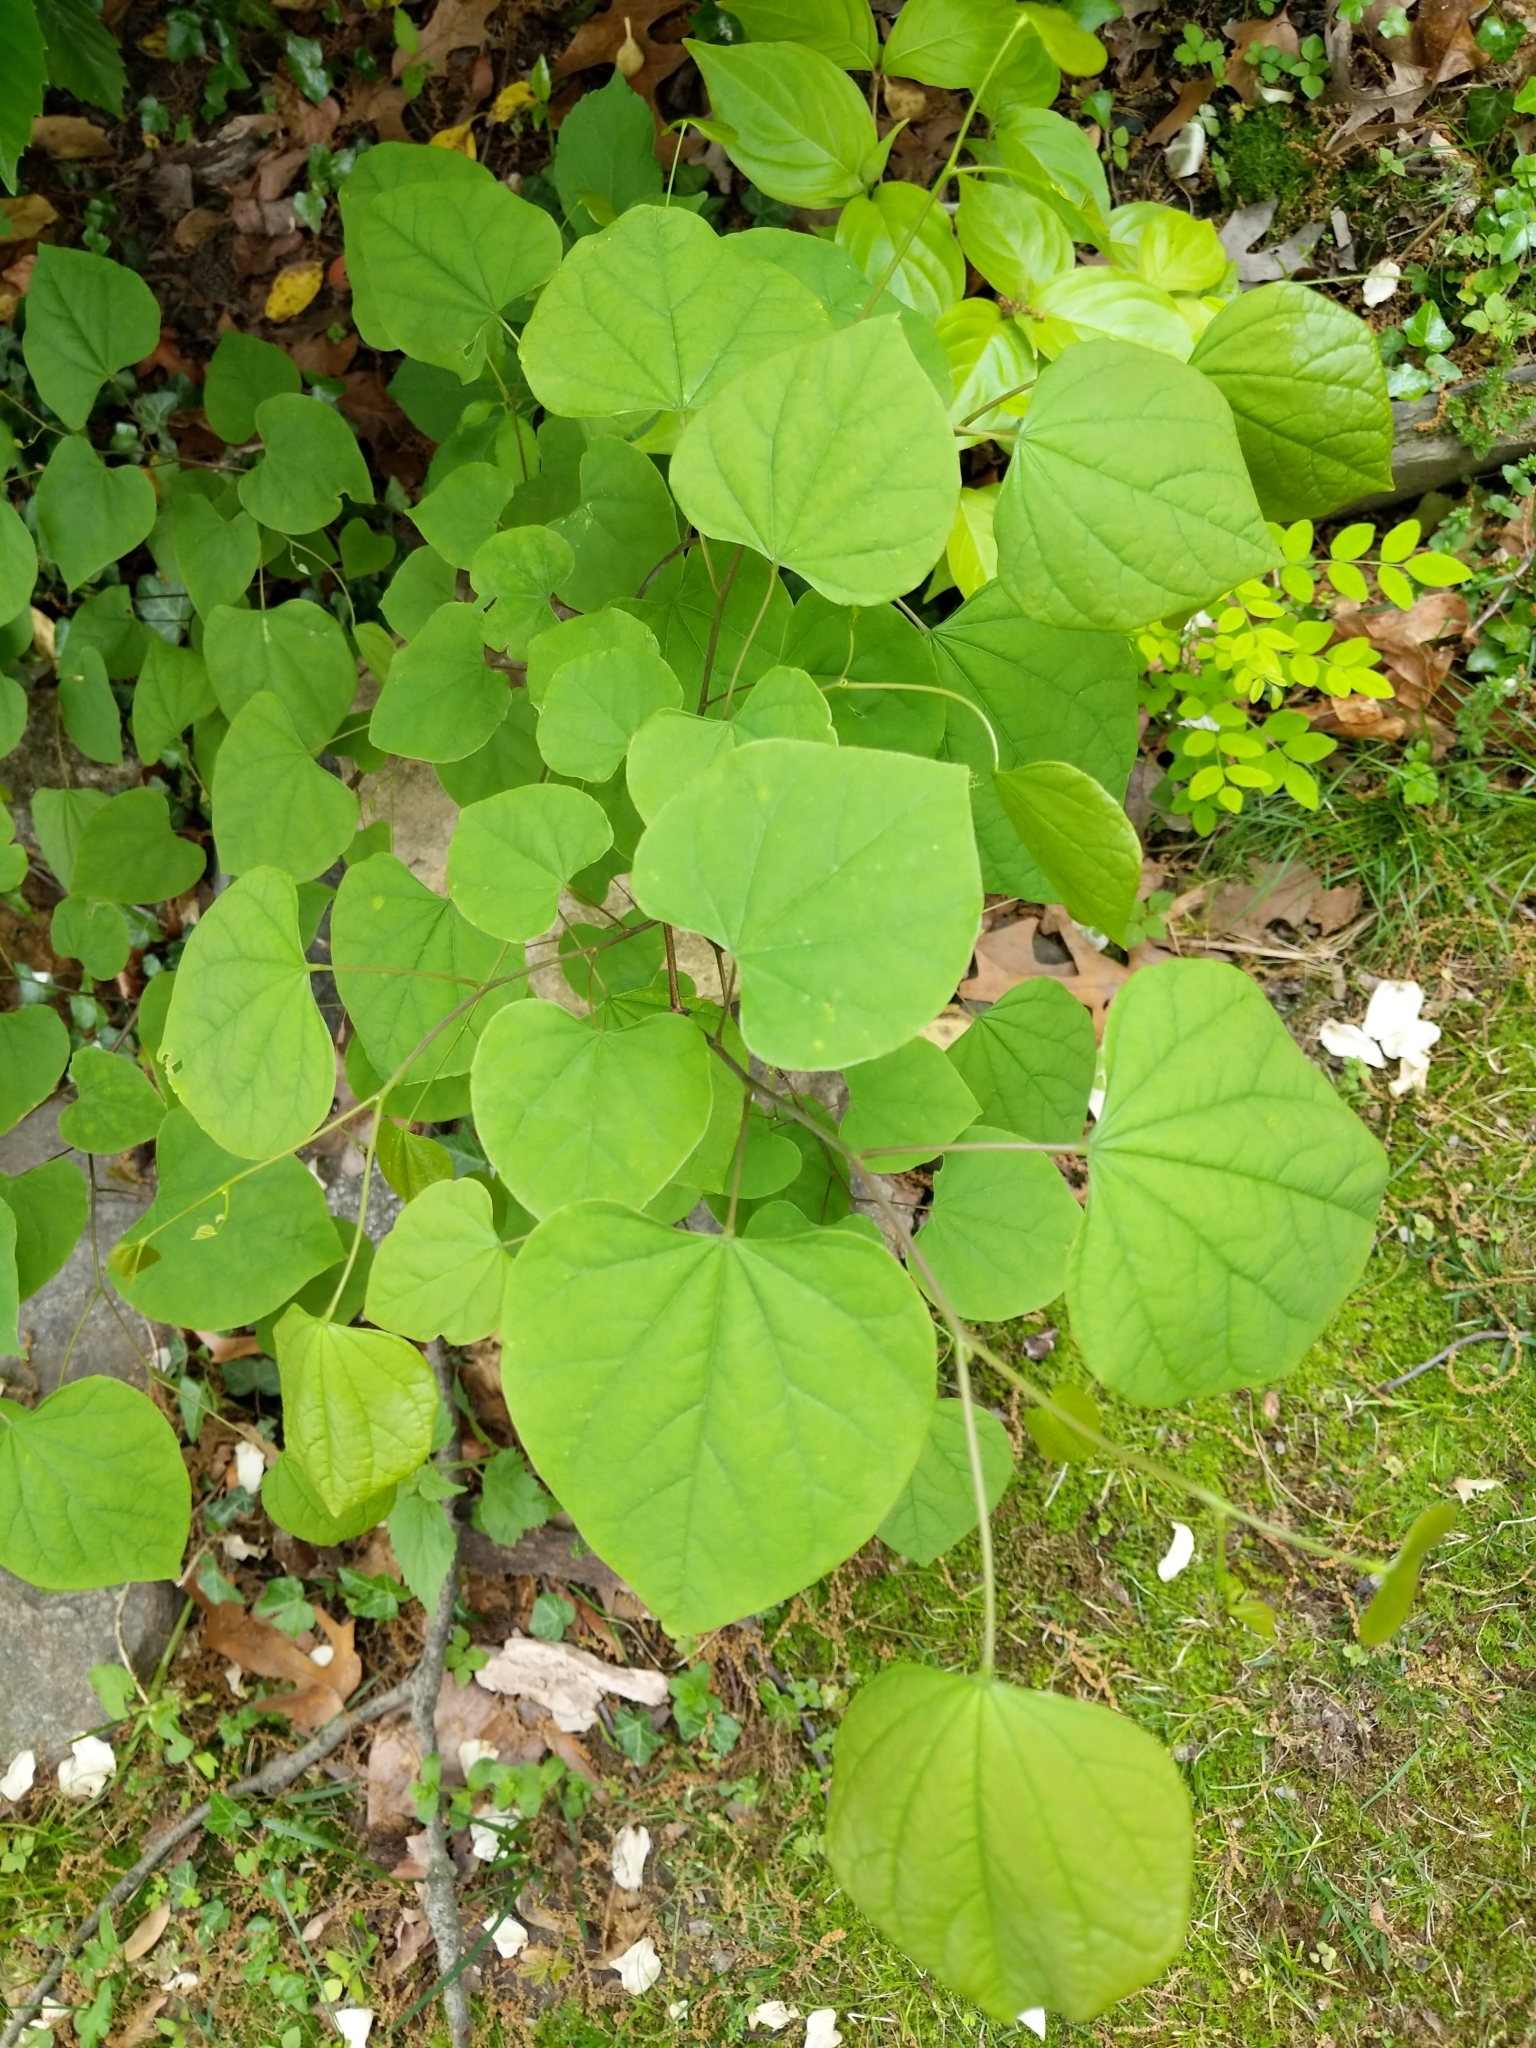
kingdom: Plantae
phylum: Tracheophyta
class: Magnoliopsida
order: Fabales
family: Fabaceae
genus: Cercis
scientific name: Cercis canadensis
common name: Eastern redbud
